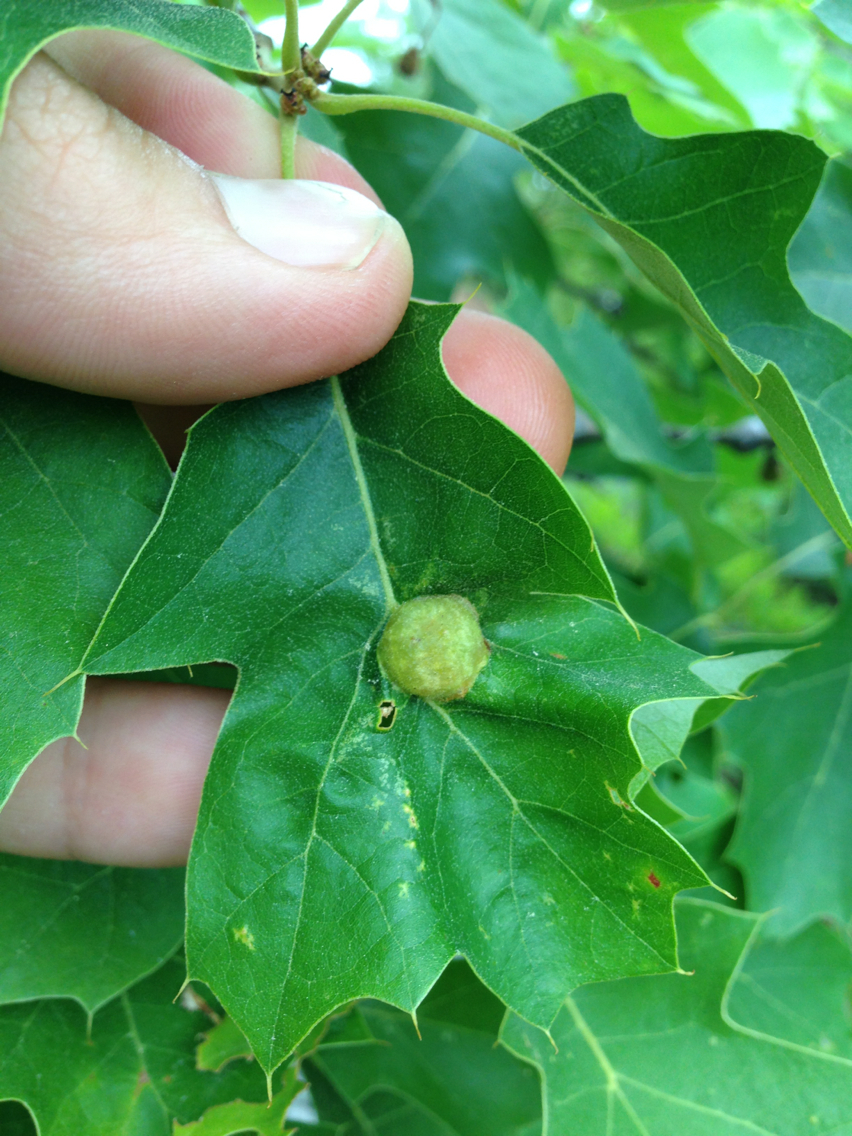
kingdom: Animalia
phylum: Arthropoda
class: Insecta
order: Hymenoptera
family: Cynipidae
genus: Dryocosmus
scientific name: Dryocosmus quercuspalustris
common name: Succulent oak gall wasp
